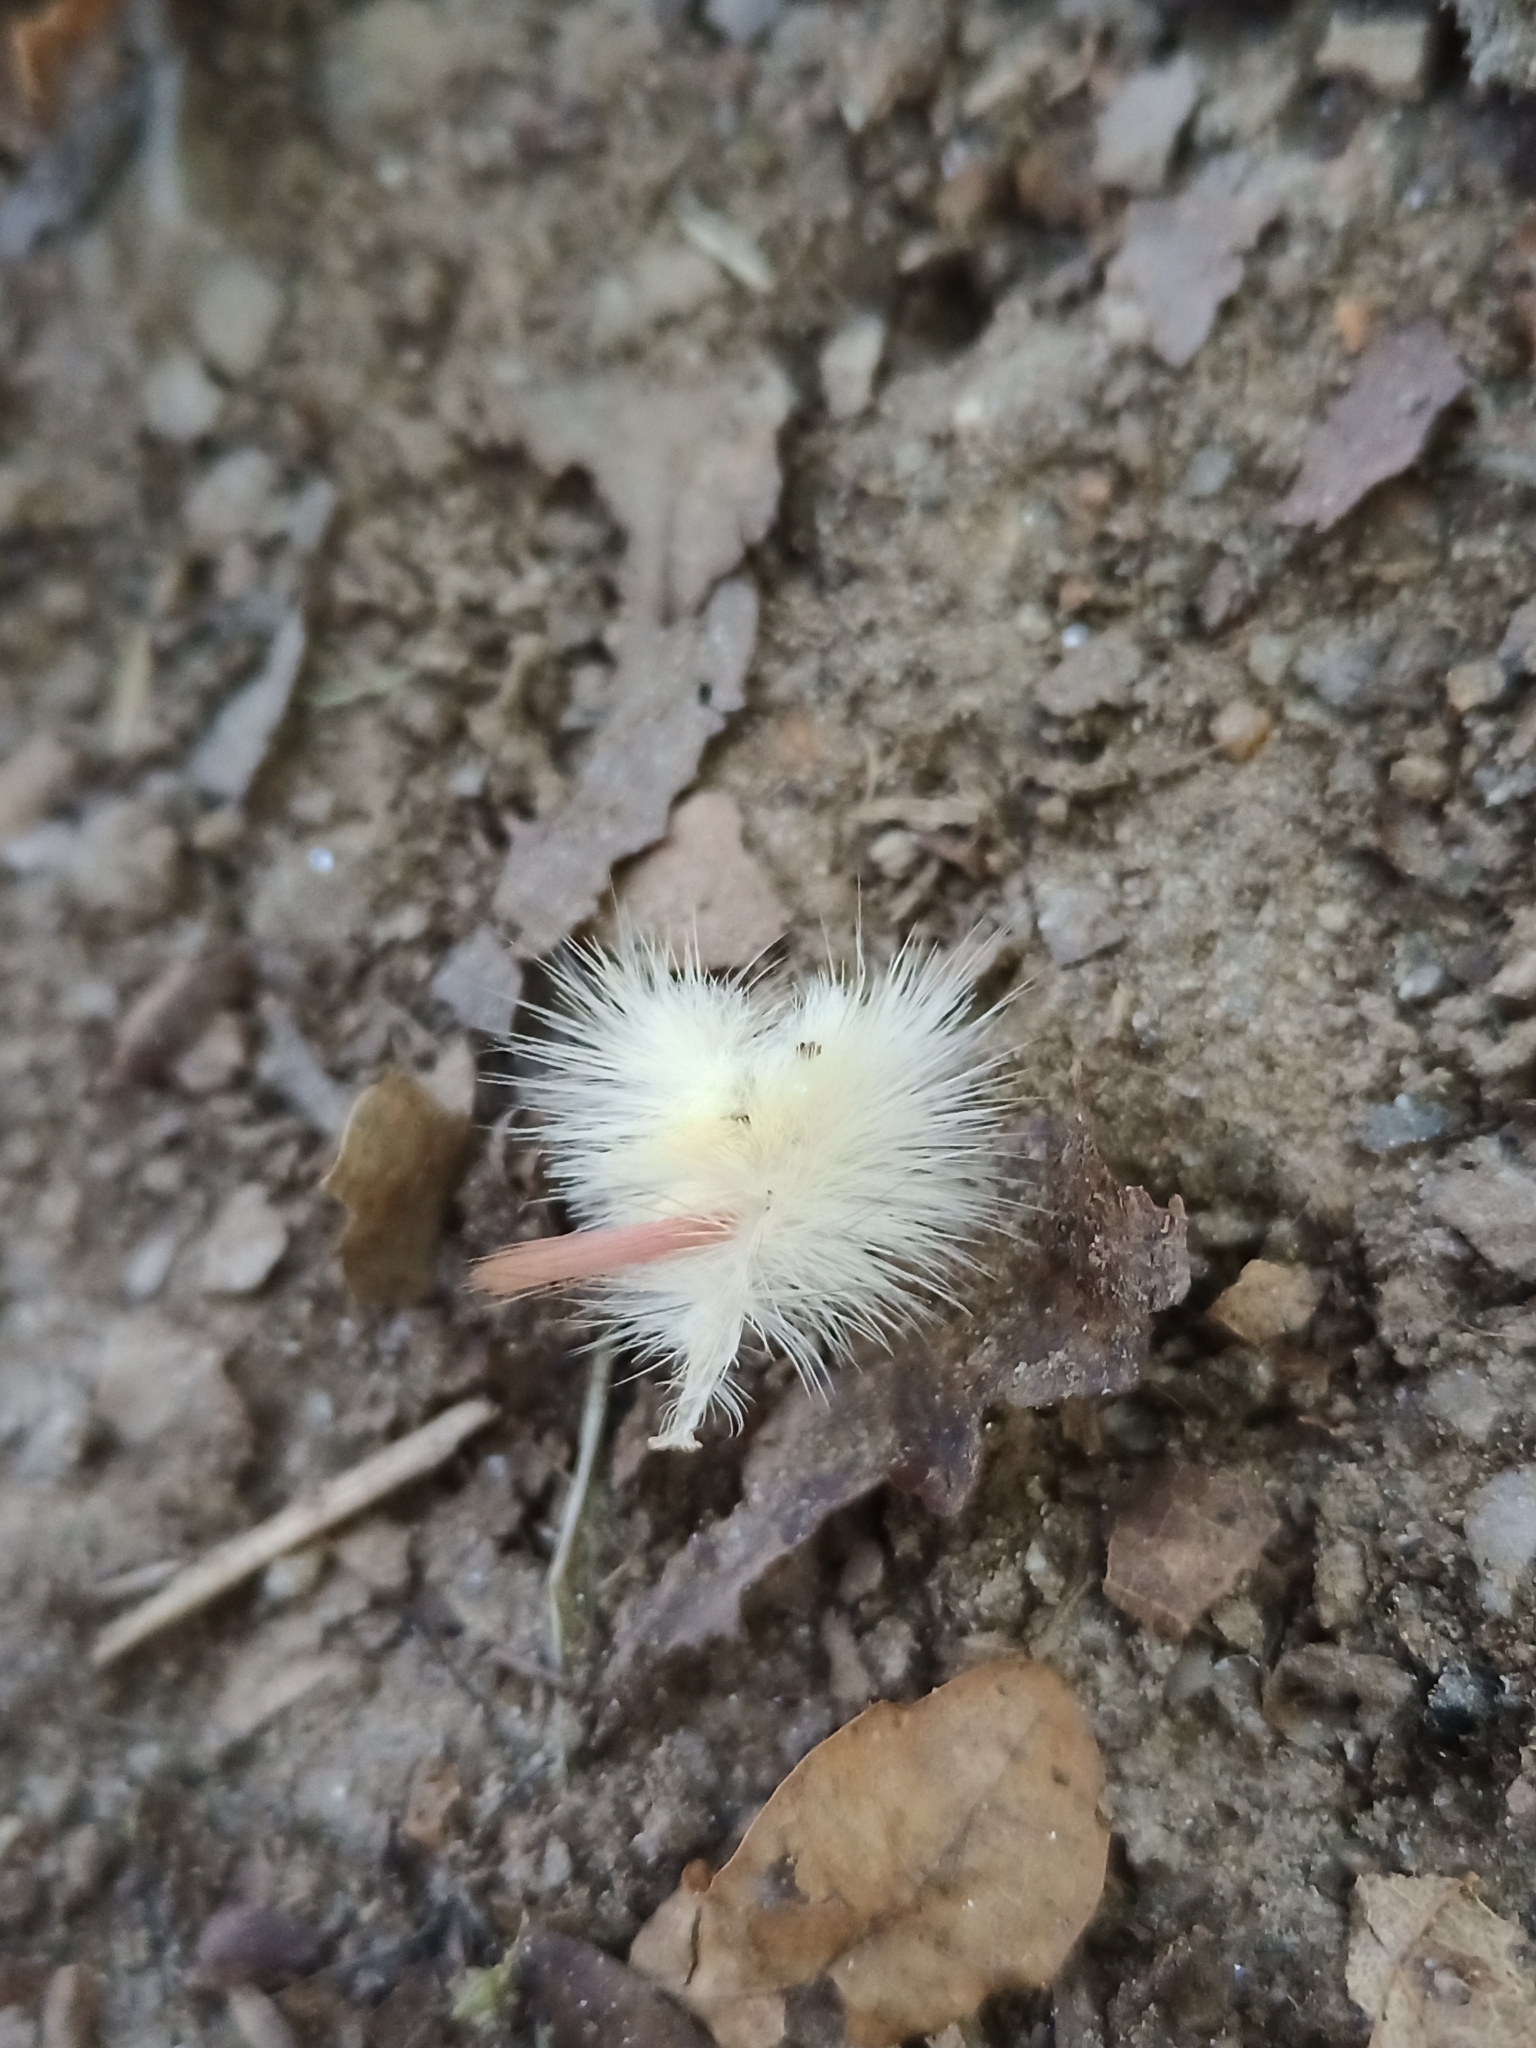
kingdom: Animalia
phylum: Arthropoda
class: Insecta
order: Lepidoptera
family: Erebidae
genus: Calliteara
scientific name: Calliteara pudibunda
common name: Pale tussock
